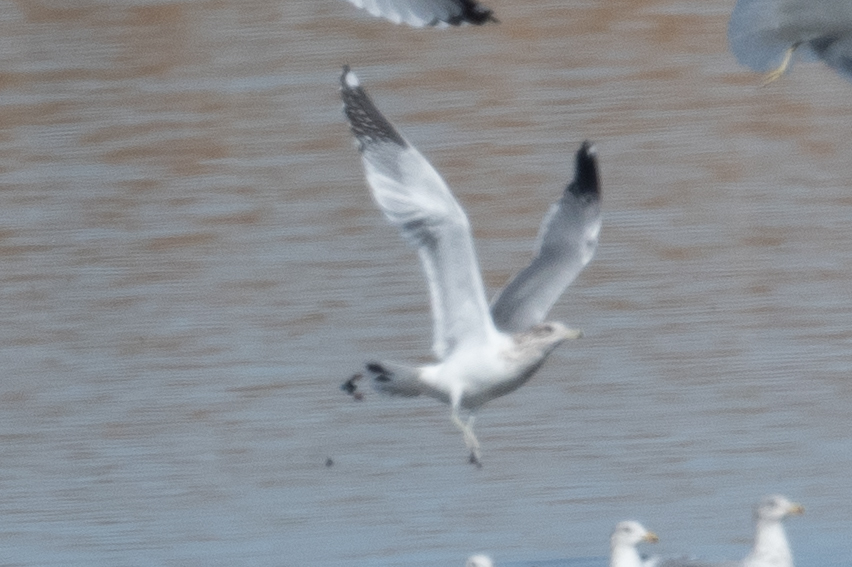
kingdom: Animalia
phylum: Chordata
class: Aves
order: Charadriiformes
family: Laridae
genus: Larus
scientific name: Larus californicus
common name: California gull
